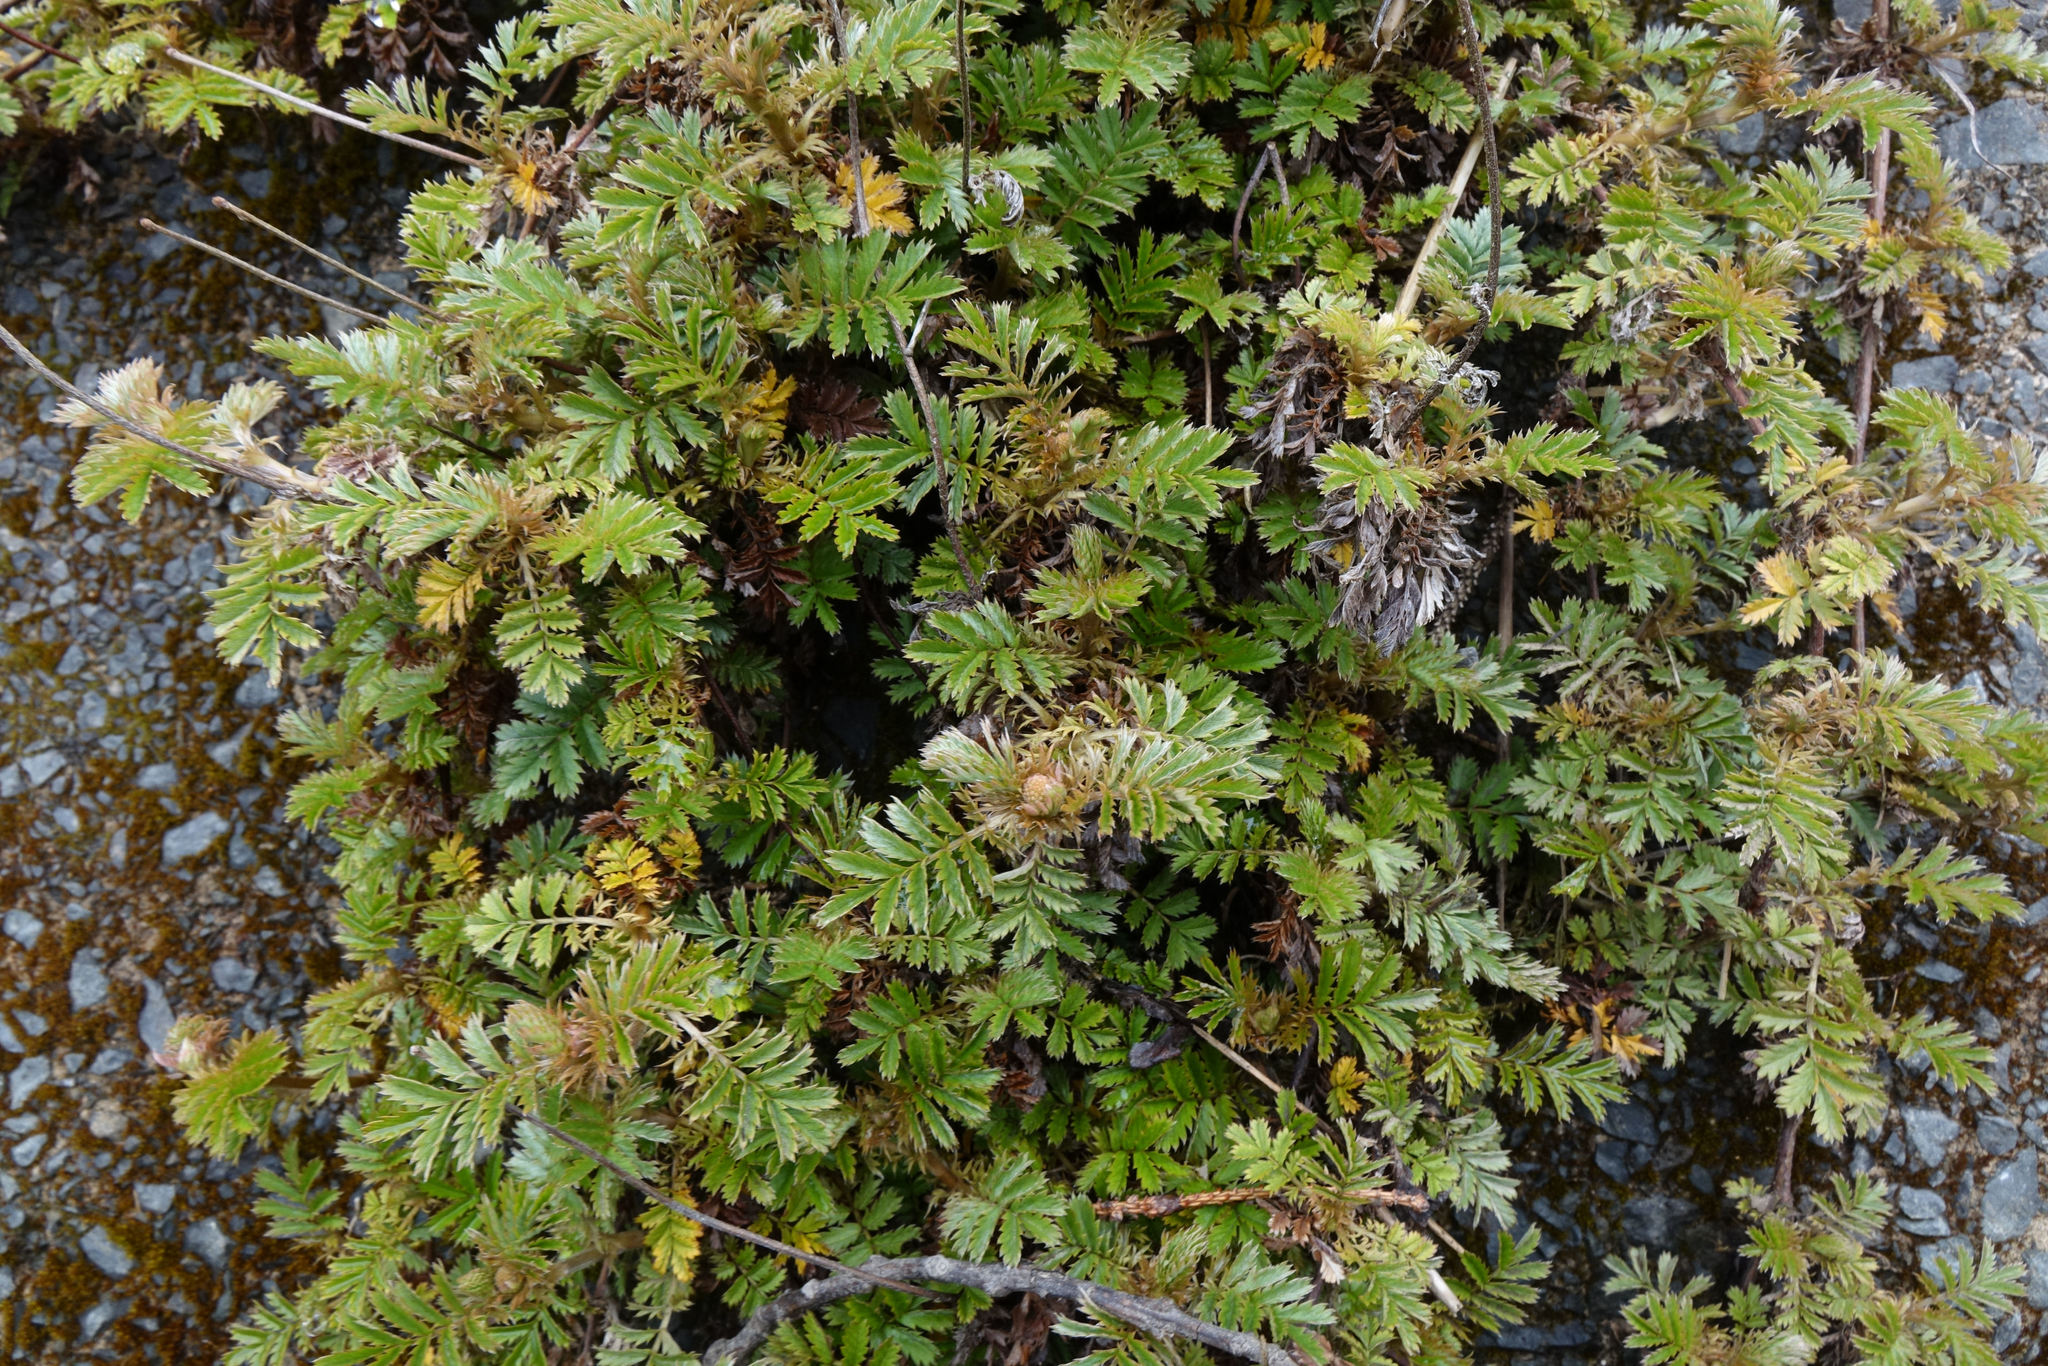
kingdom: Plantae
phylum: Tracheophyta
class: Magnoliopsida
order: Rosales
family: Rosaceae
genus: Acaena
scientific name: Acaena anserinifolia
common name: Bronze pirri-pirri-bur
